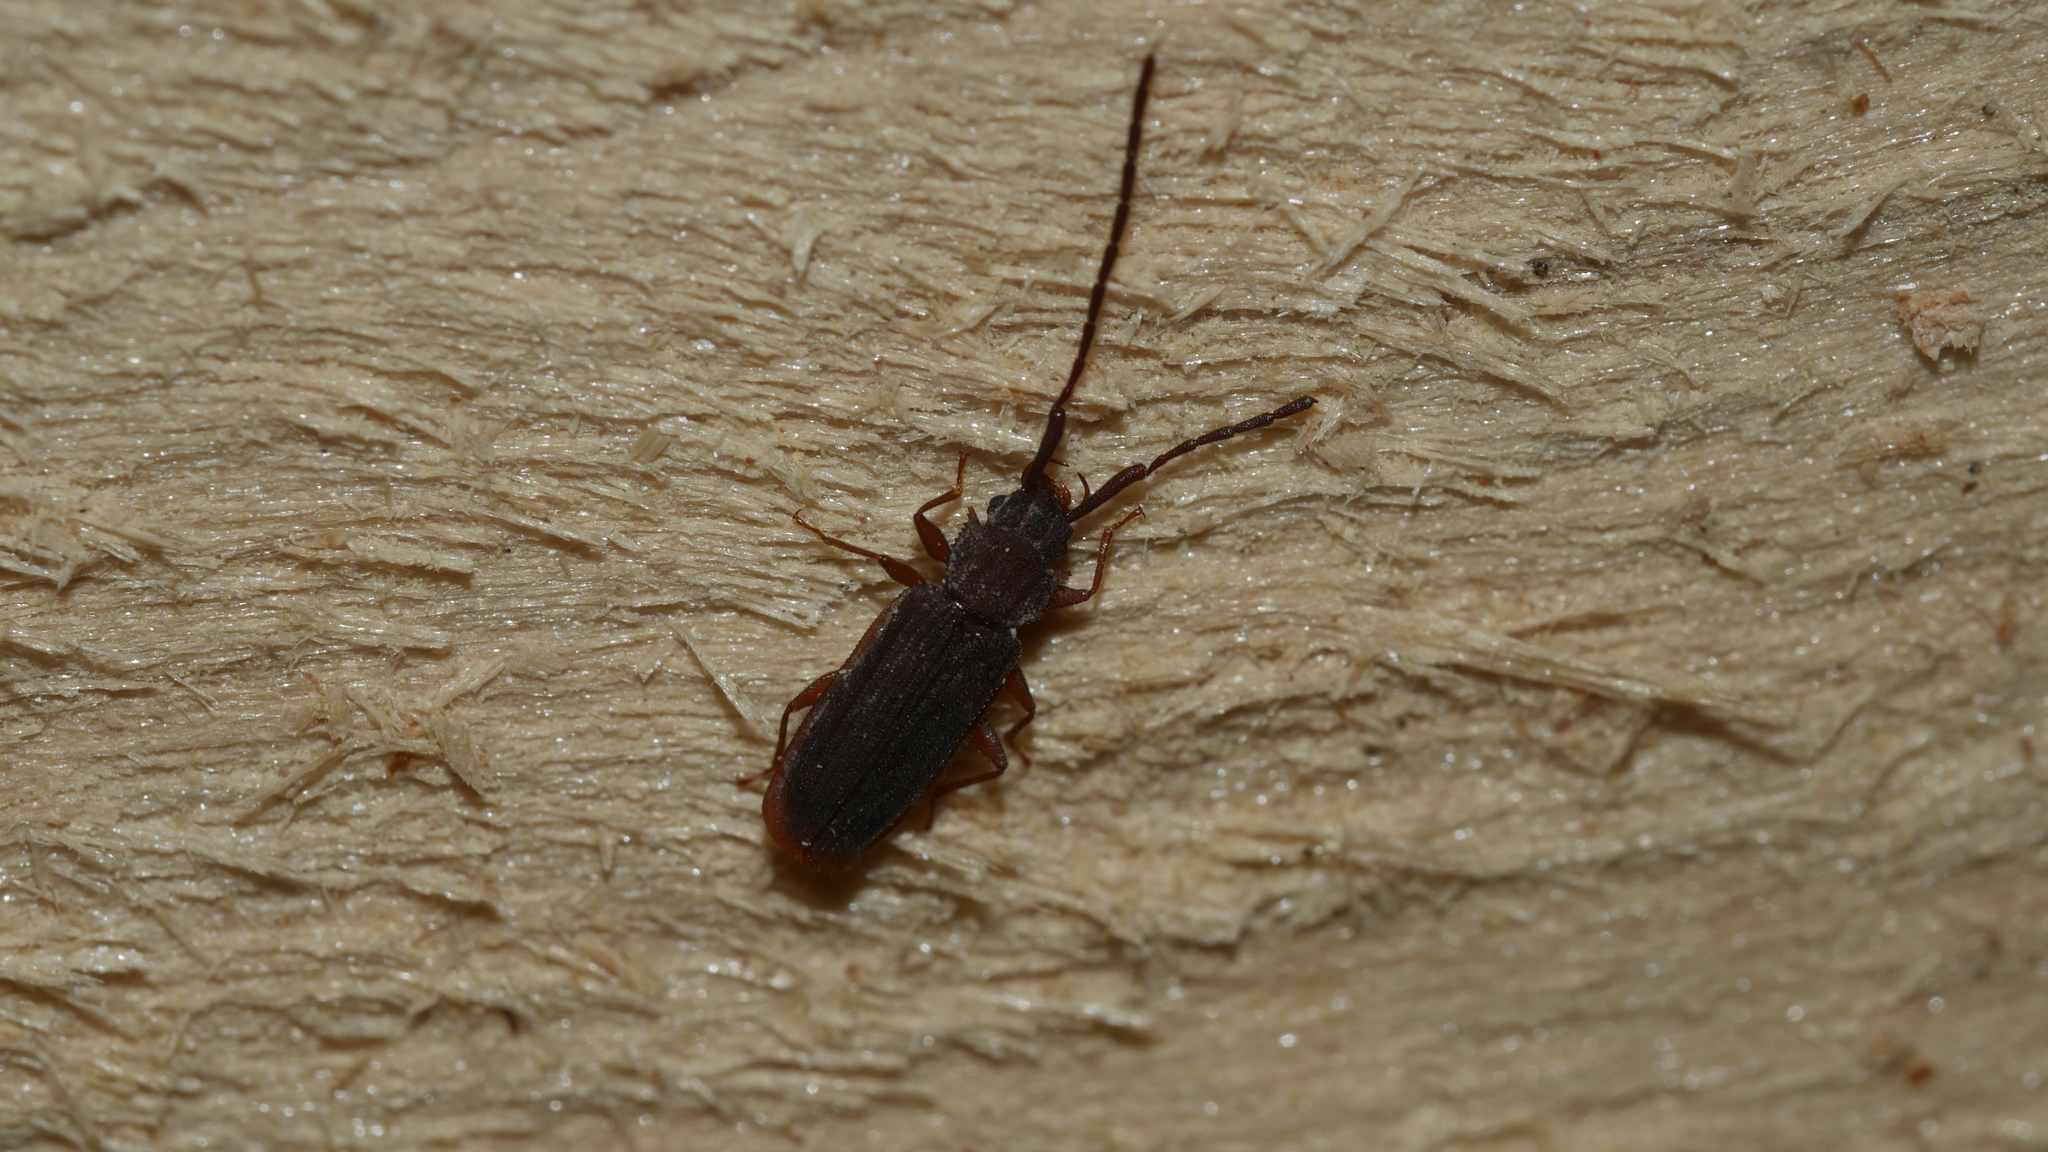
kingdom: Animalia
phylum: Arthropoda
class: Insecta
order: Coleoptera
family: Silvanidae
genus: Uleiota
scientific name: Uleiota planatus
